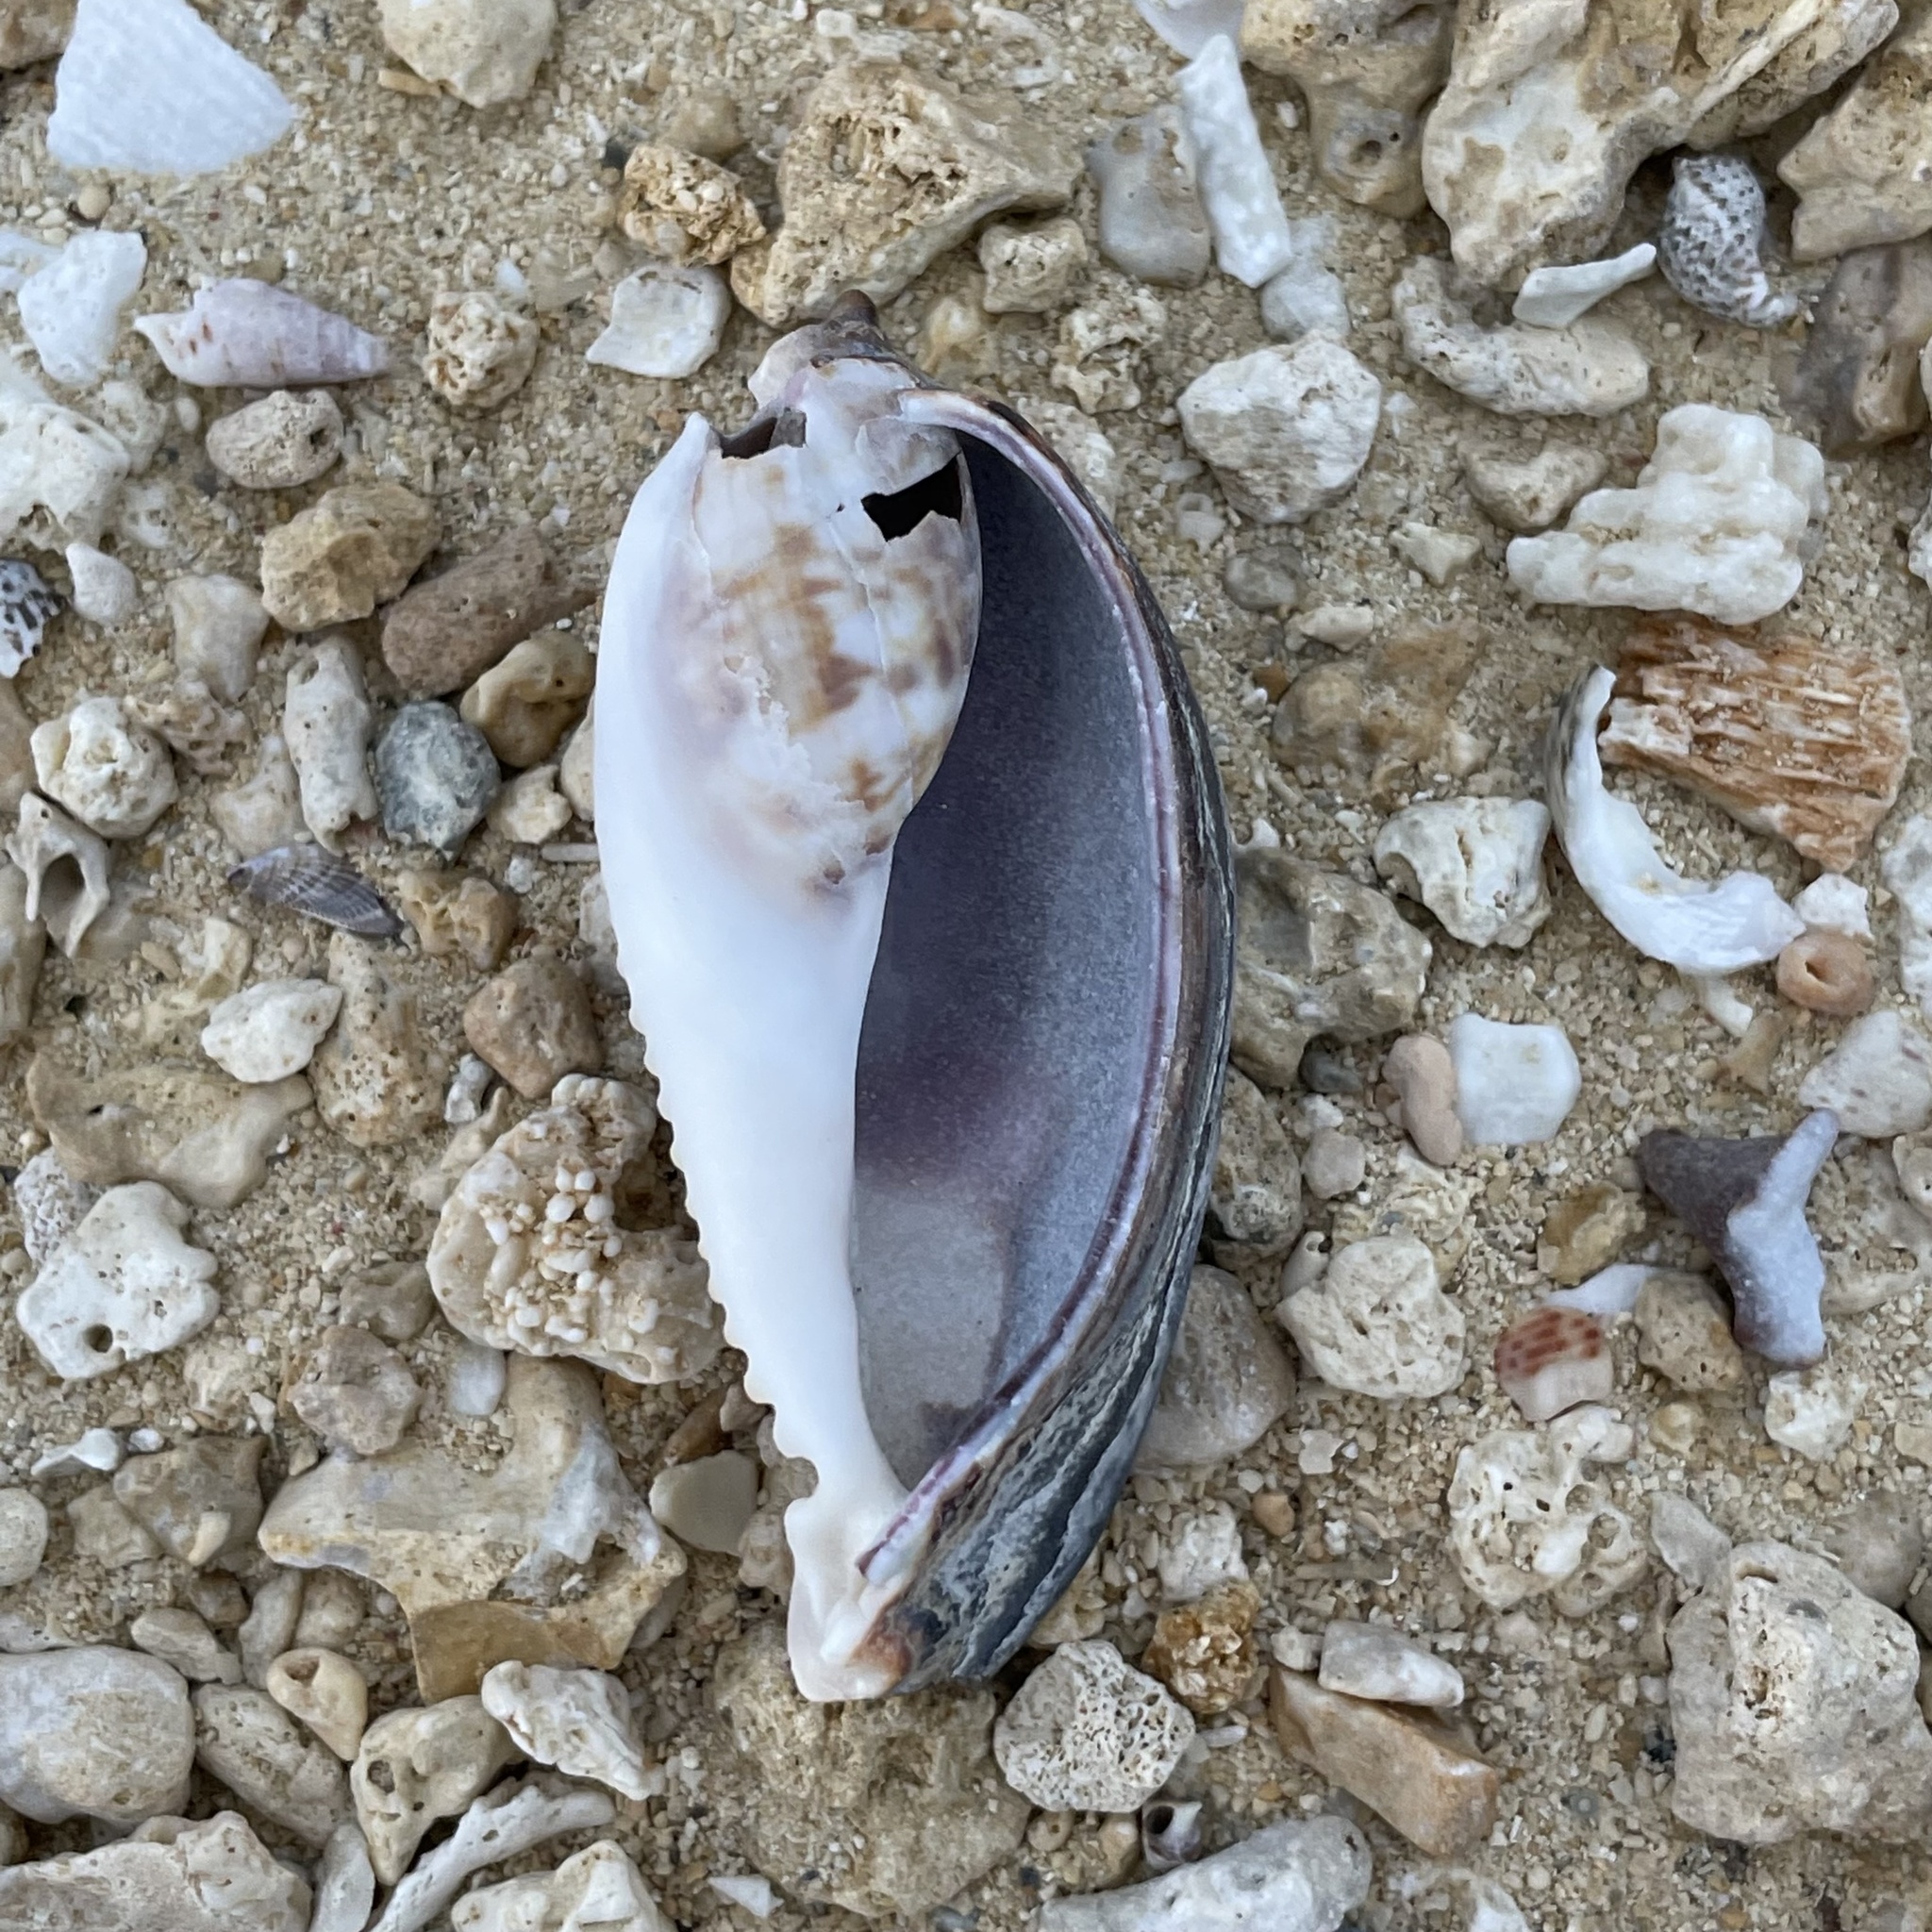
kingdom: Animalia
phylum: Mollusca
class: Gastropoda
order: Littorinimorpha
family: Cypraeidae
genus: Mauritia
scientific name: Mauritia mauritiana
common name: Hump-backed cowrie
